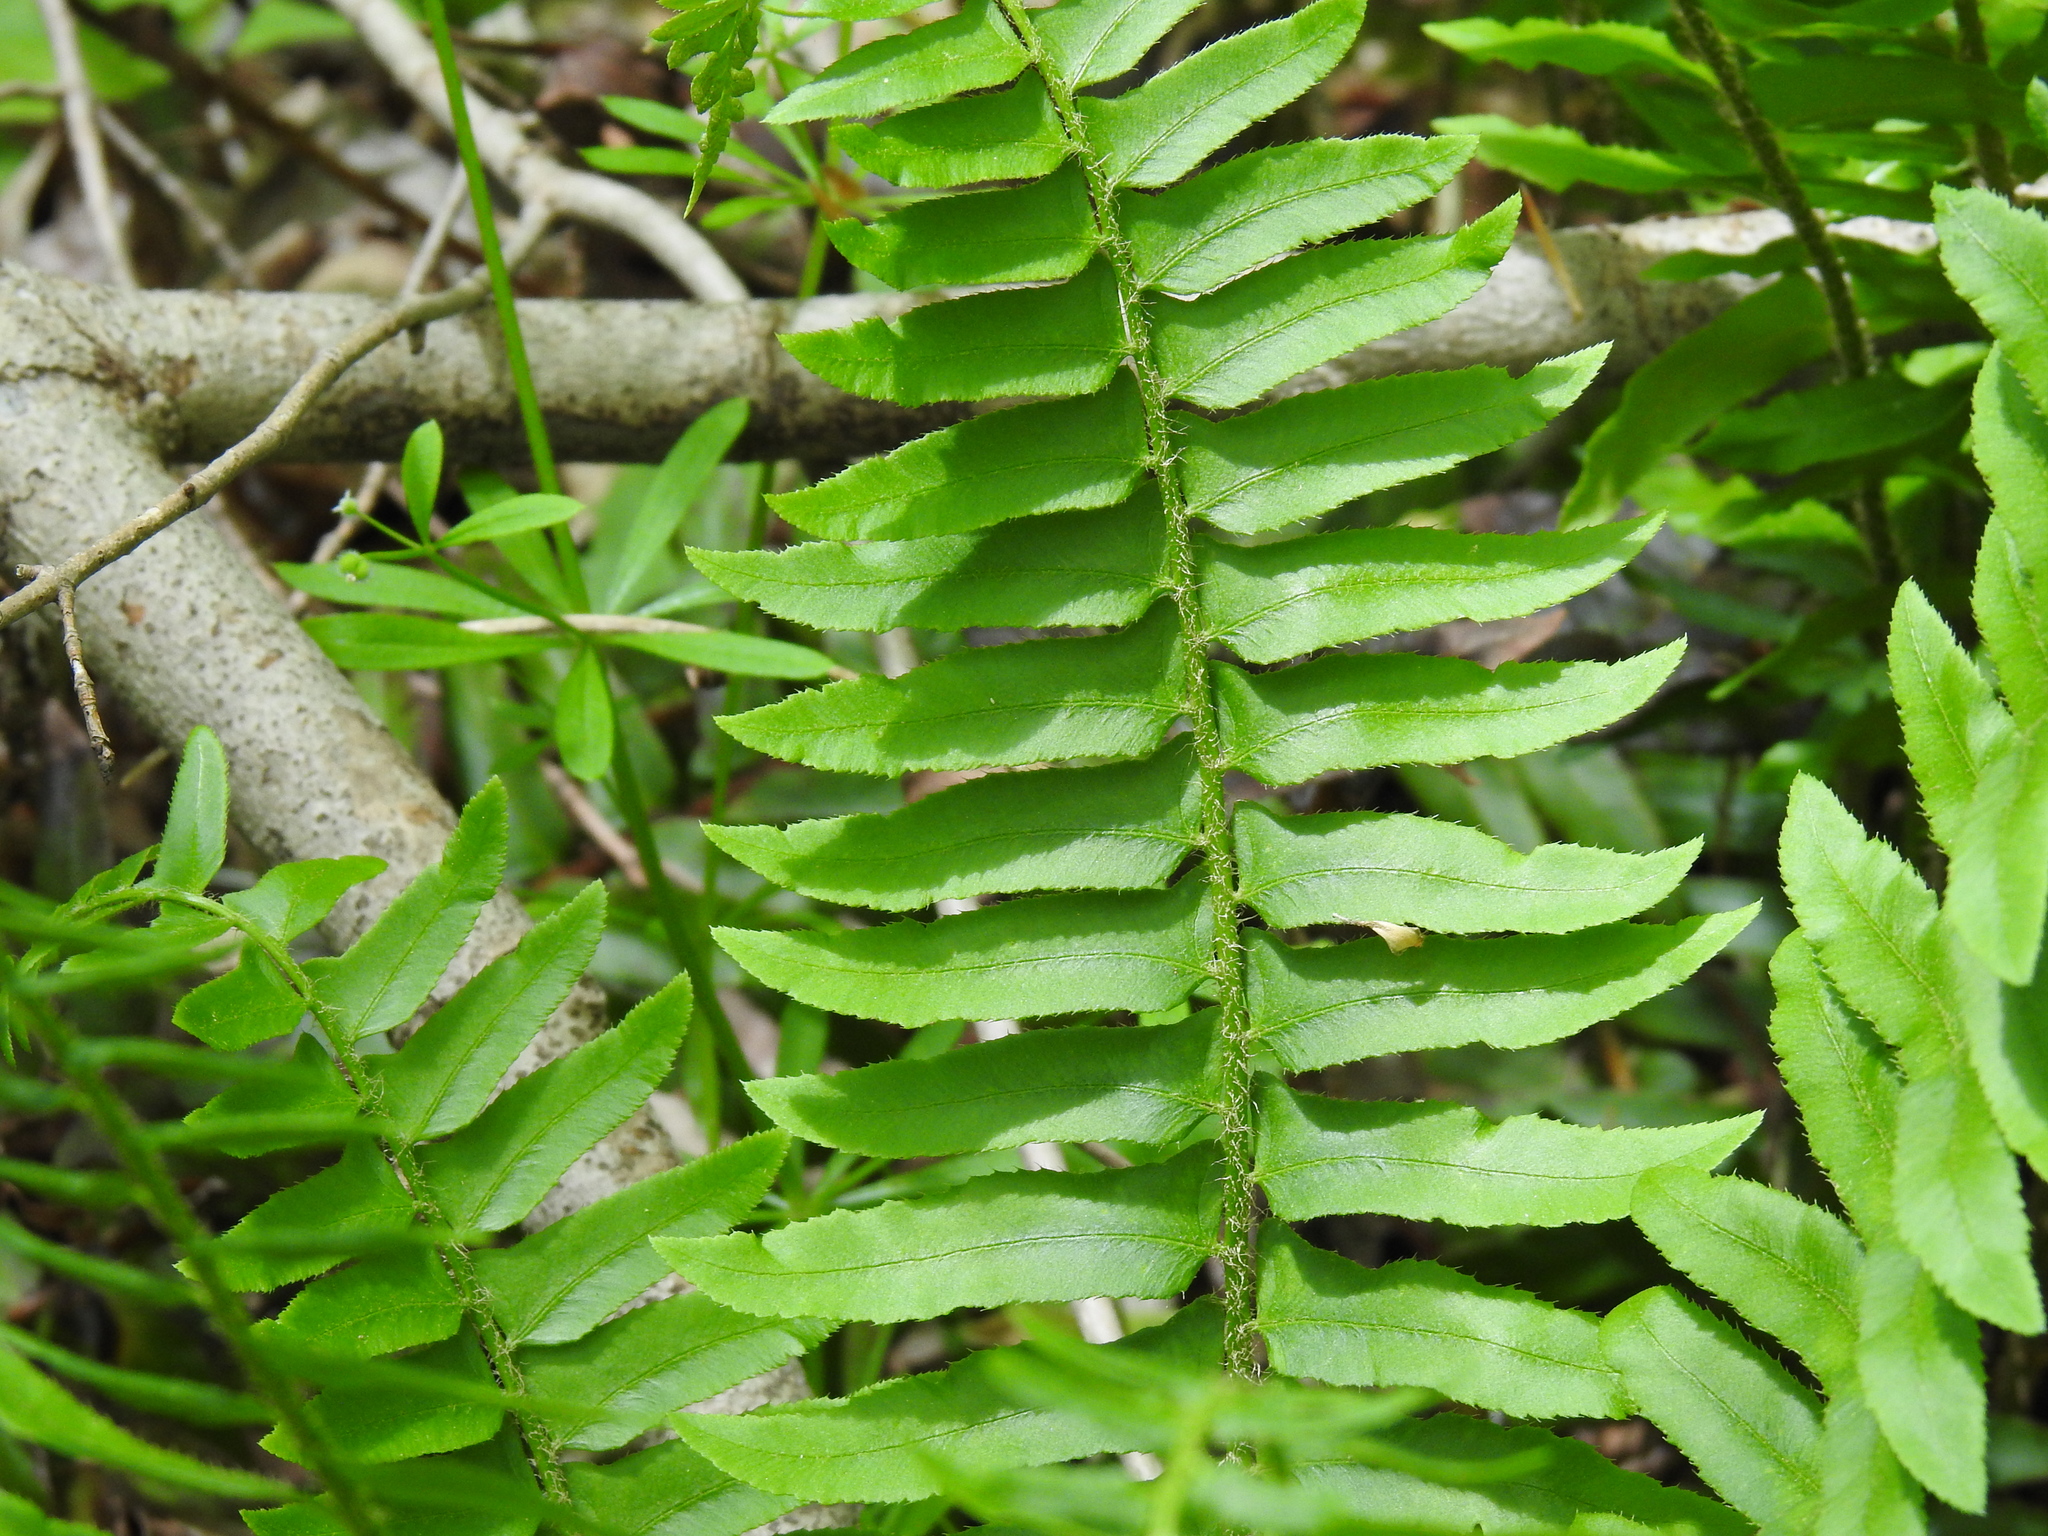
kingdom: Plantae
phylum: Tracheophyta
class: Polypodiopsida
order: Polypodiales
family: Dryopteridaceae
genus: Polystichum
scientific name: Polystichum acrostichoides
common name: Christmas fern
